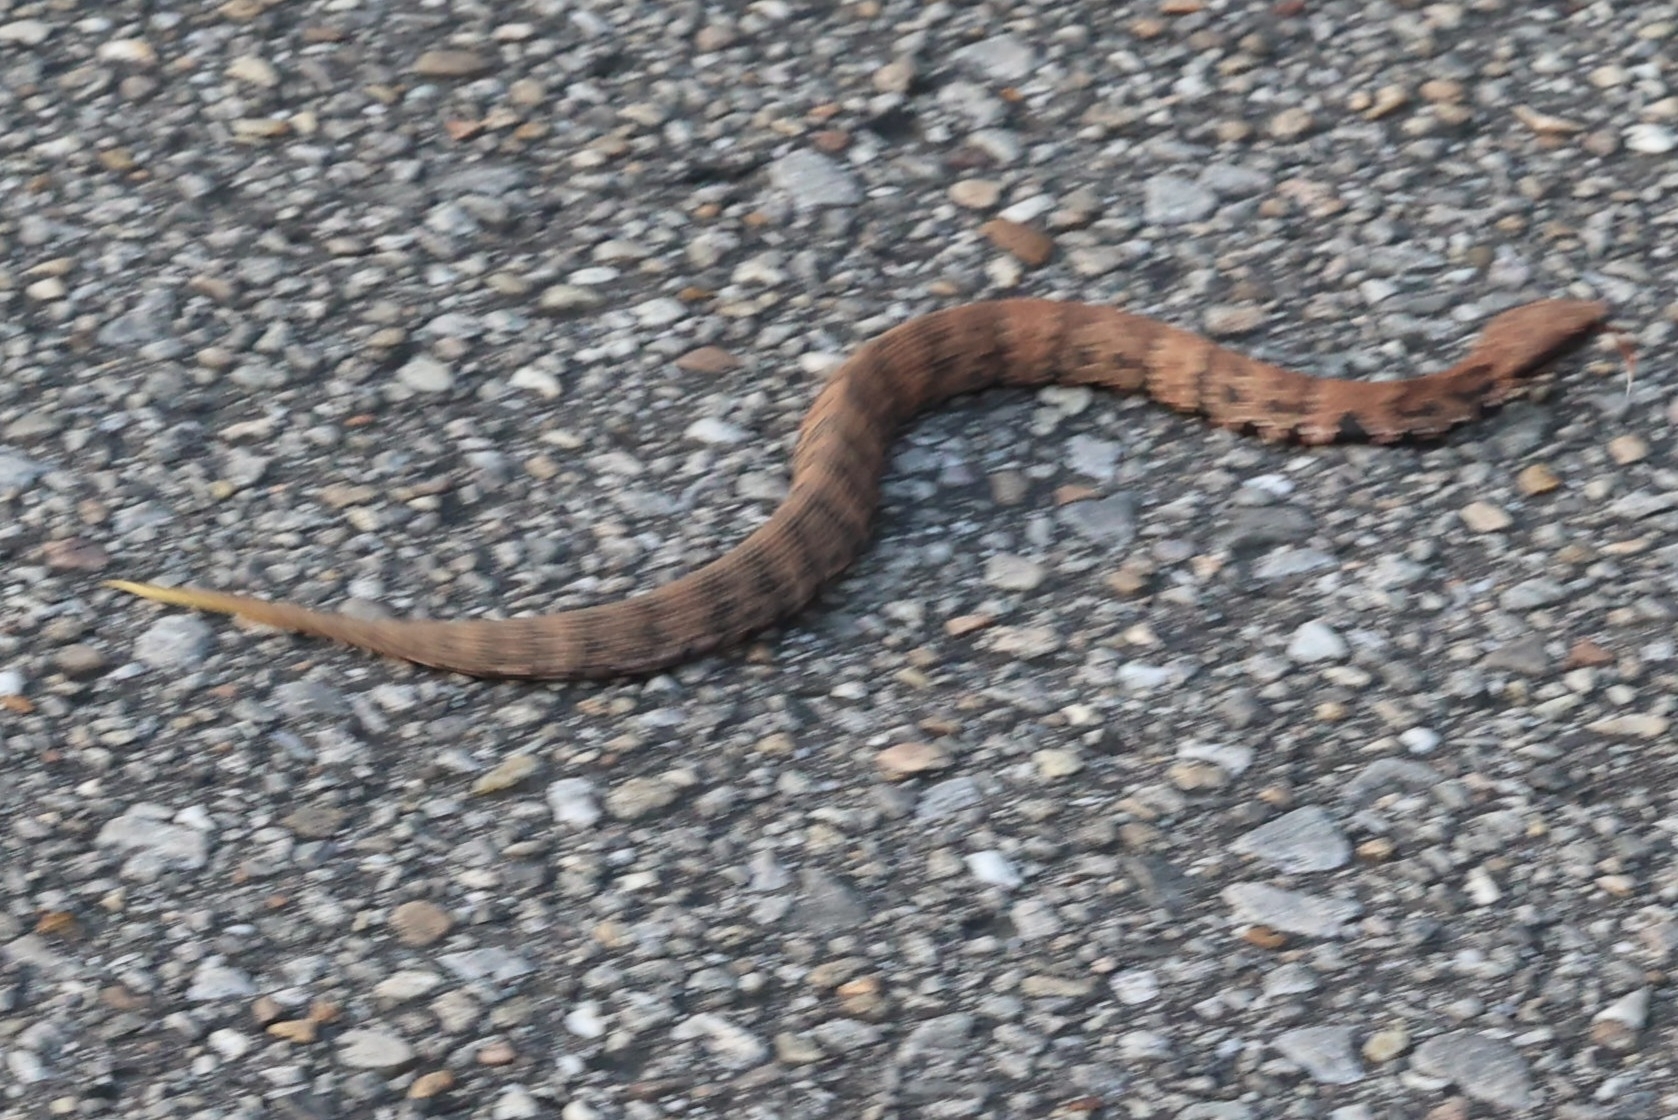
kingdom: Animalia
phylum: Chordata
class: Squamata
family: Viperidae
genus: Agkistrodon
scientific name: Agkistrodon piscivorus
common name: Cottonmouth
